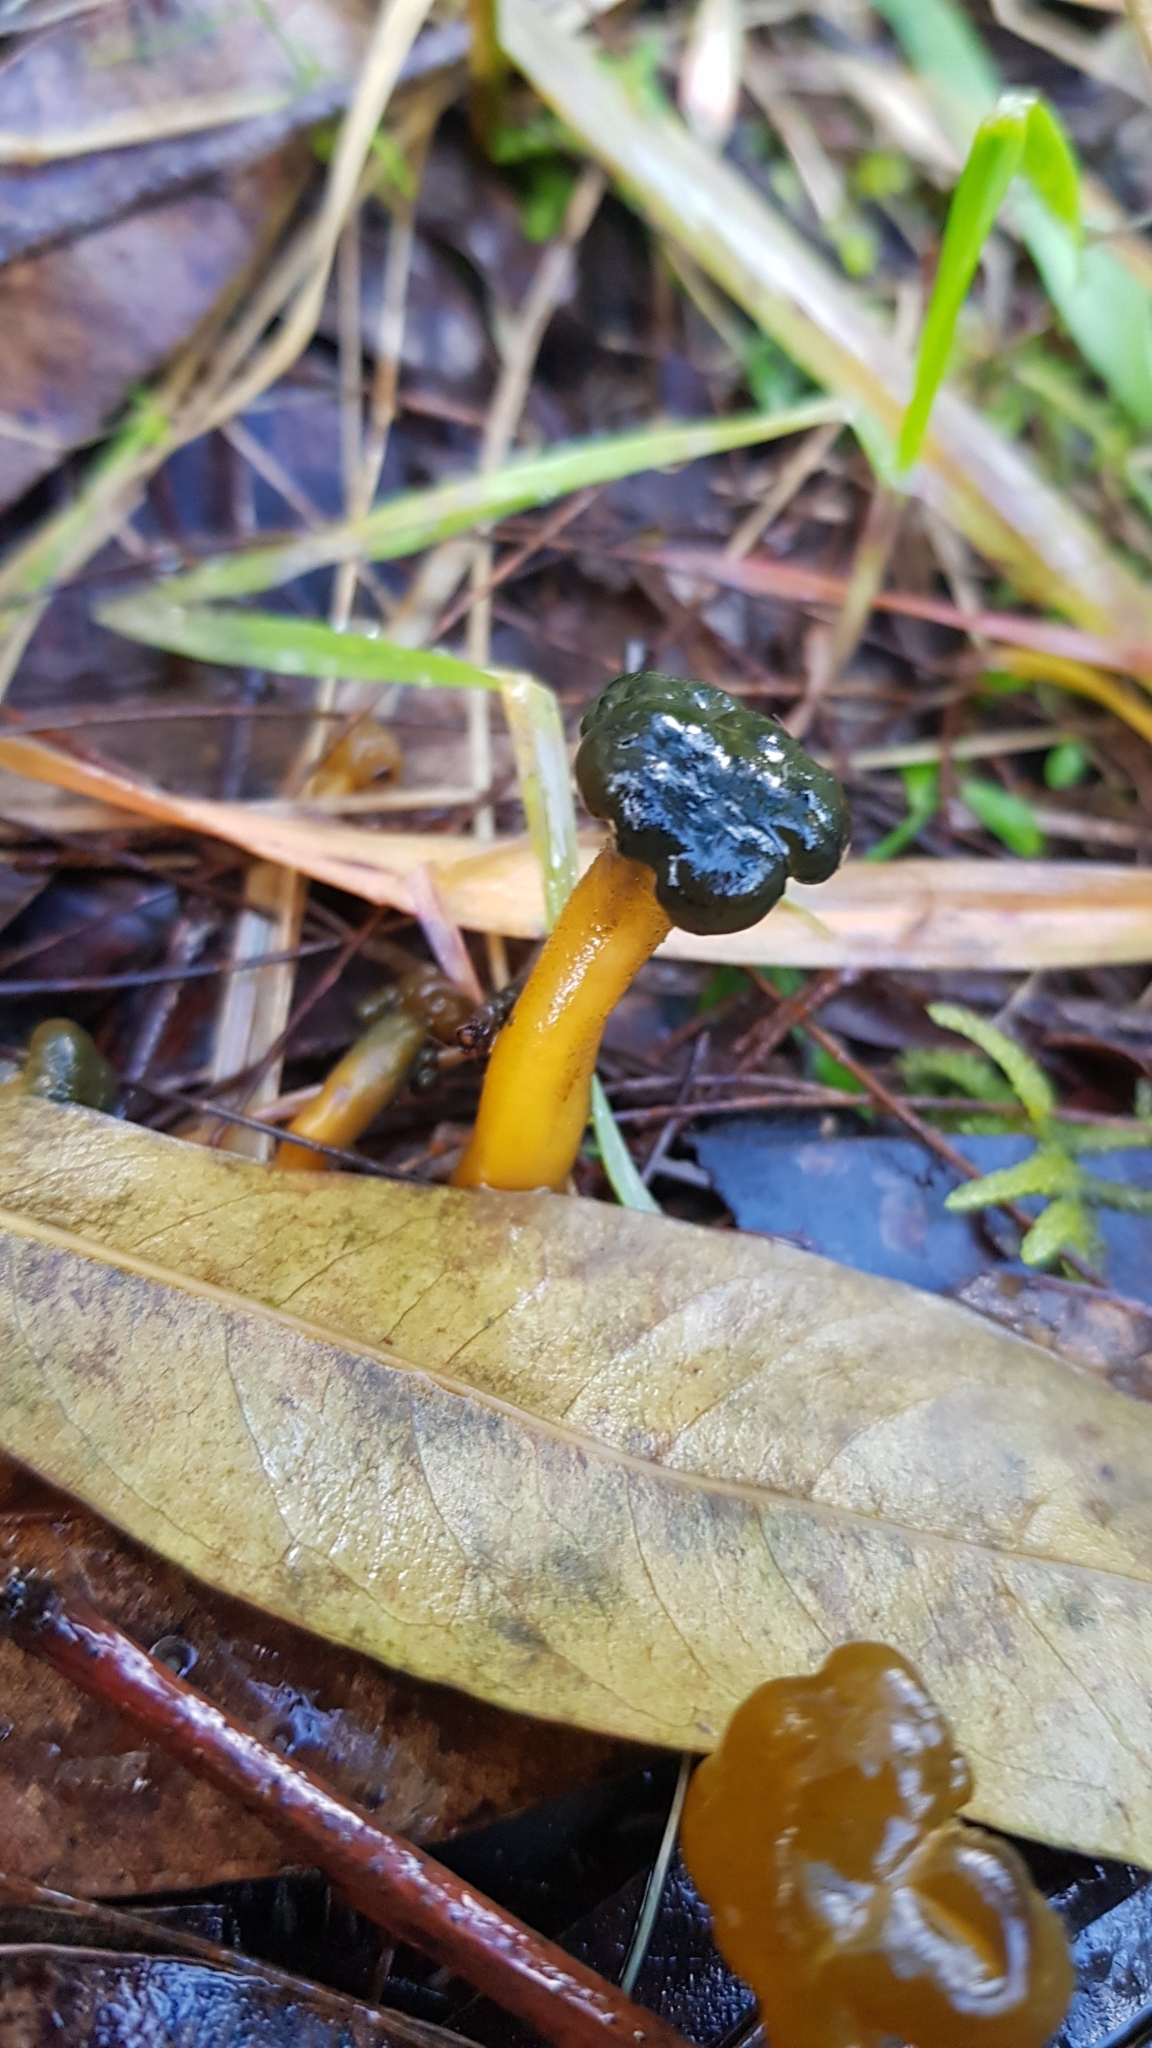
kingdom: Fungi
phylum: Ascomycota
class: Leotiomycetes
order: Leotiales
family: Leotiaceae
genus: Leotia
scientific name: Leotia lubrica
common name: Jellybaby
